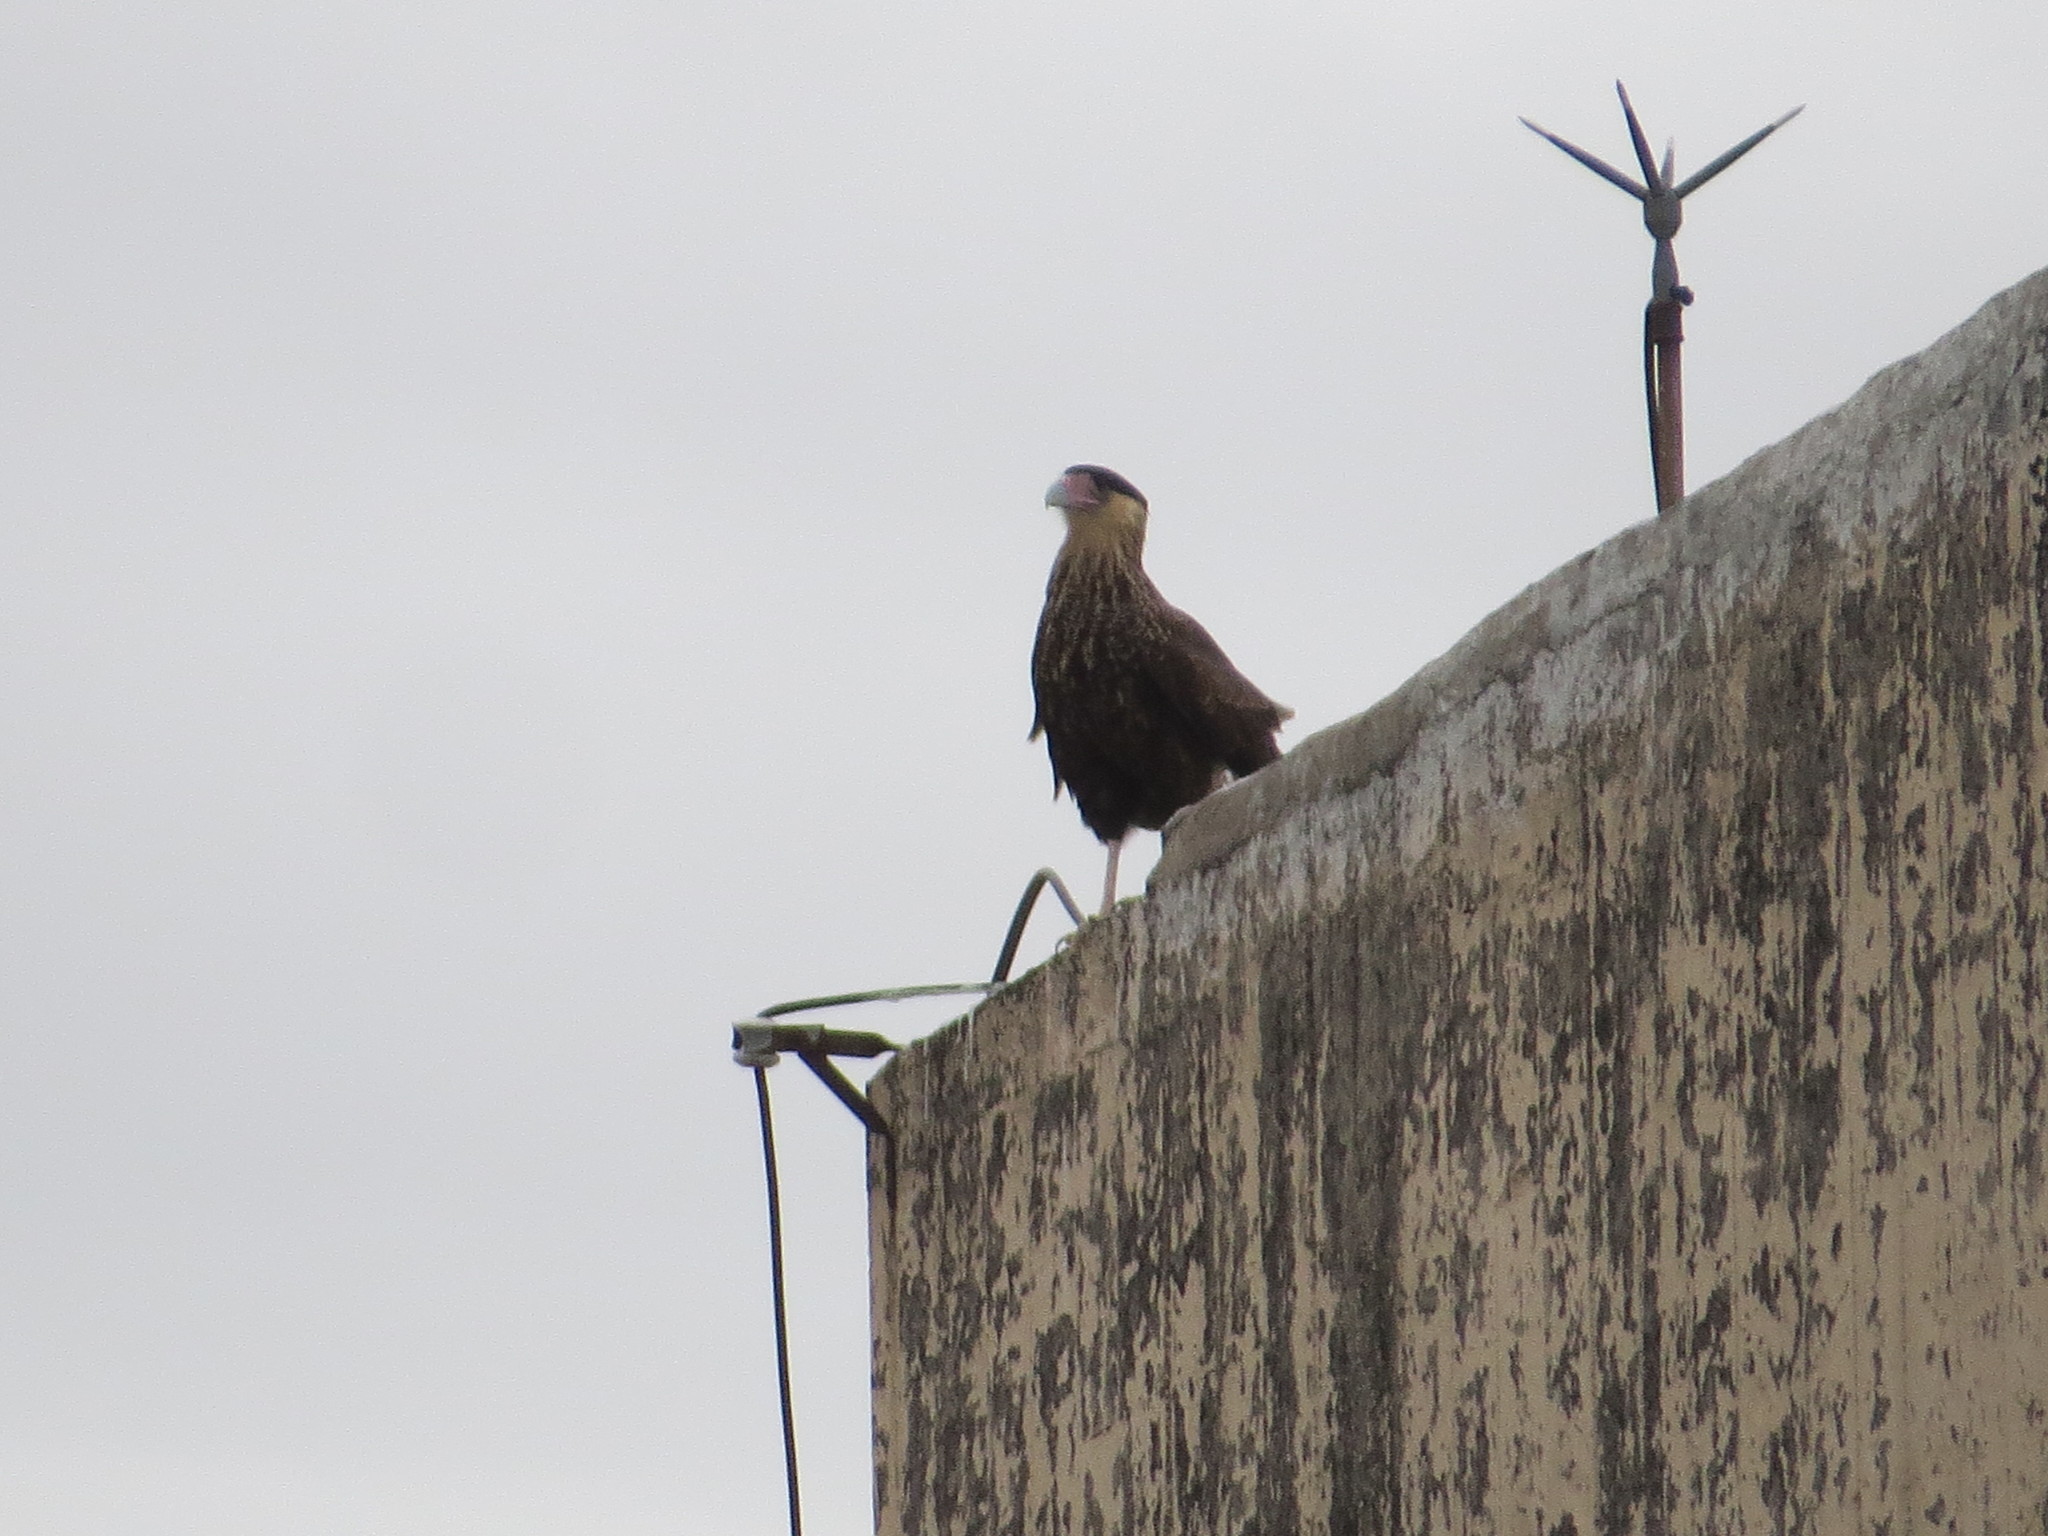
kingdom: Animalia
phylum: Chordata
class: Aves
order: Falconiformes
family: Falconidae
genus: Caracara
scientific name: Caracara plancus
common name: Southern caracara
